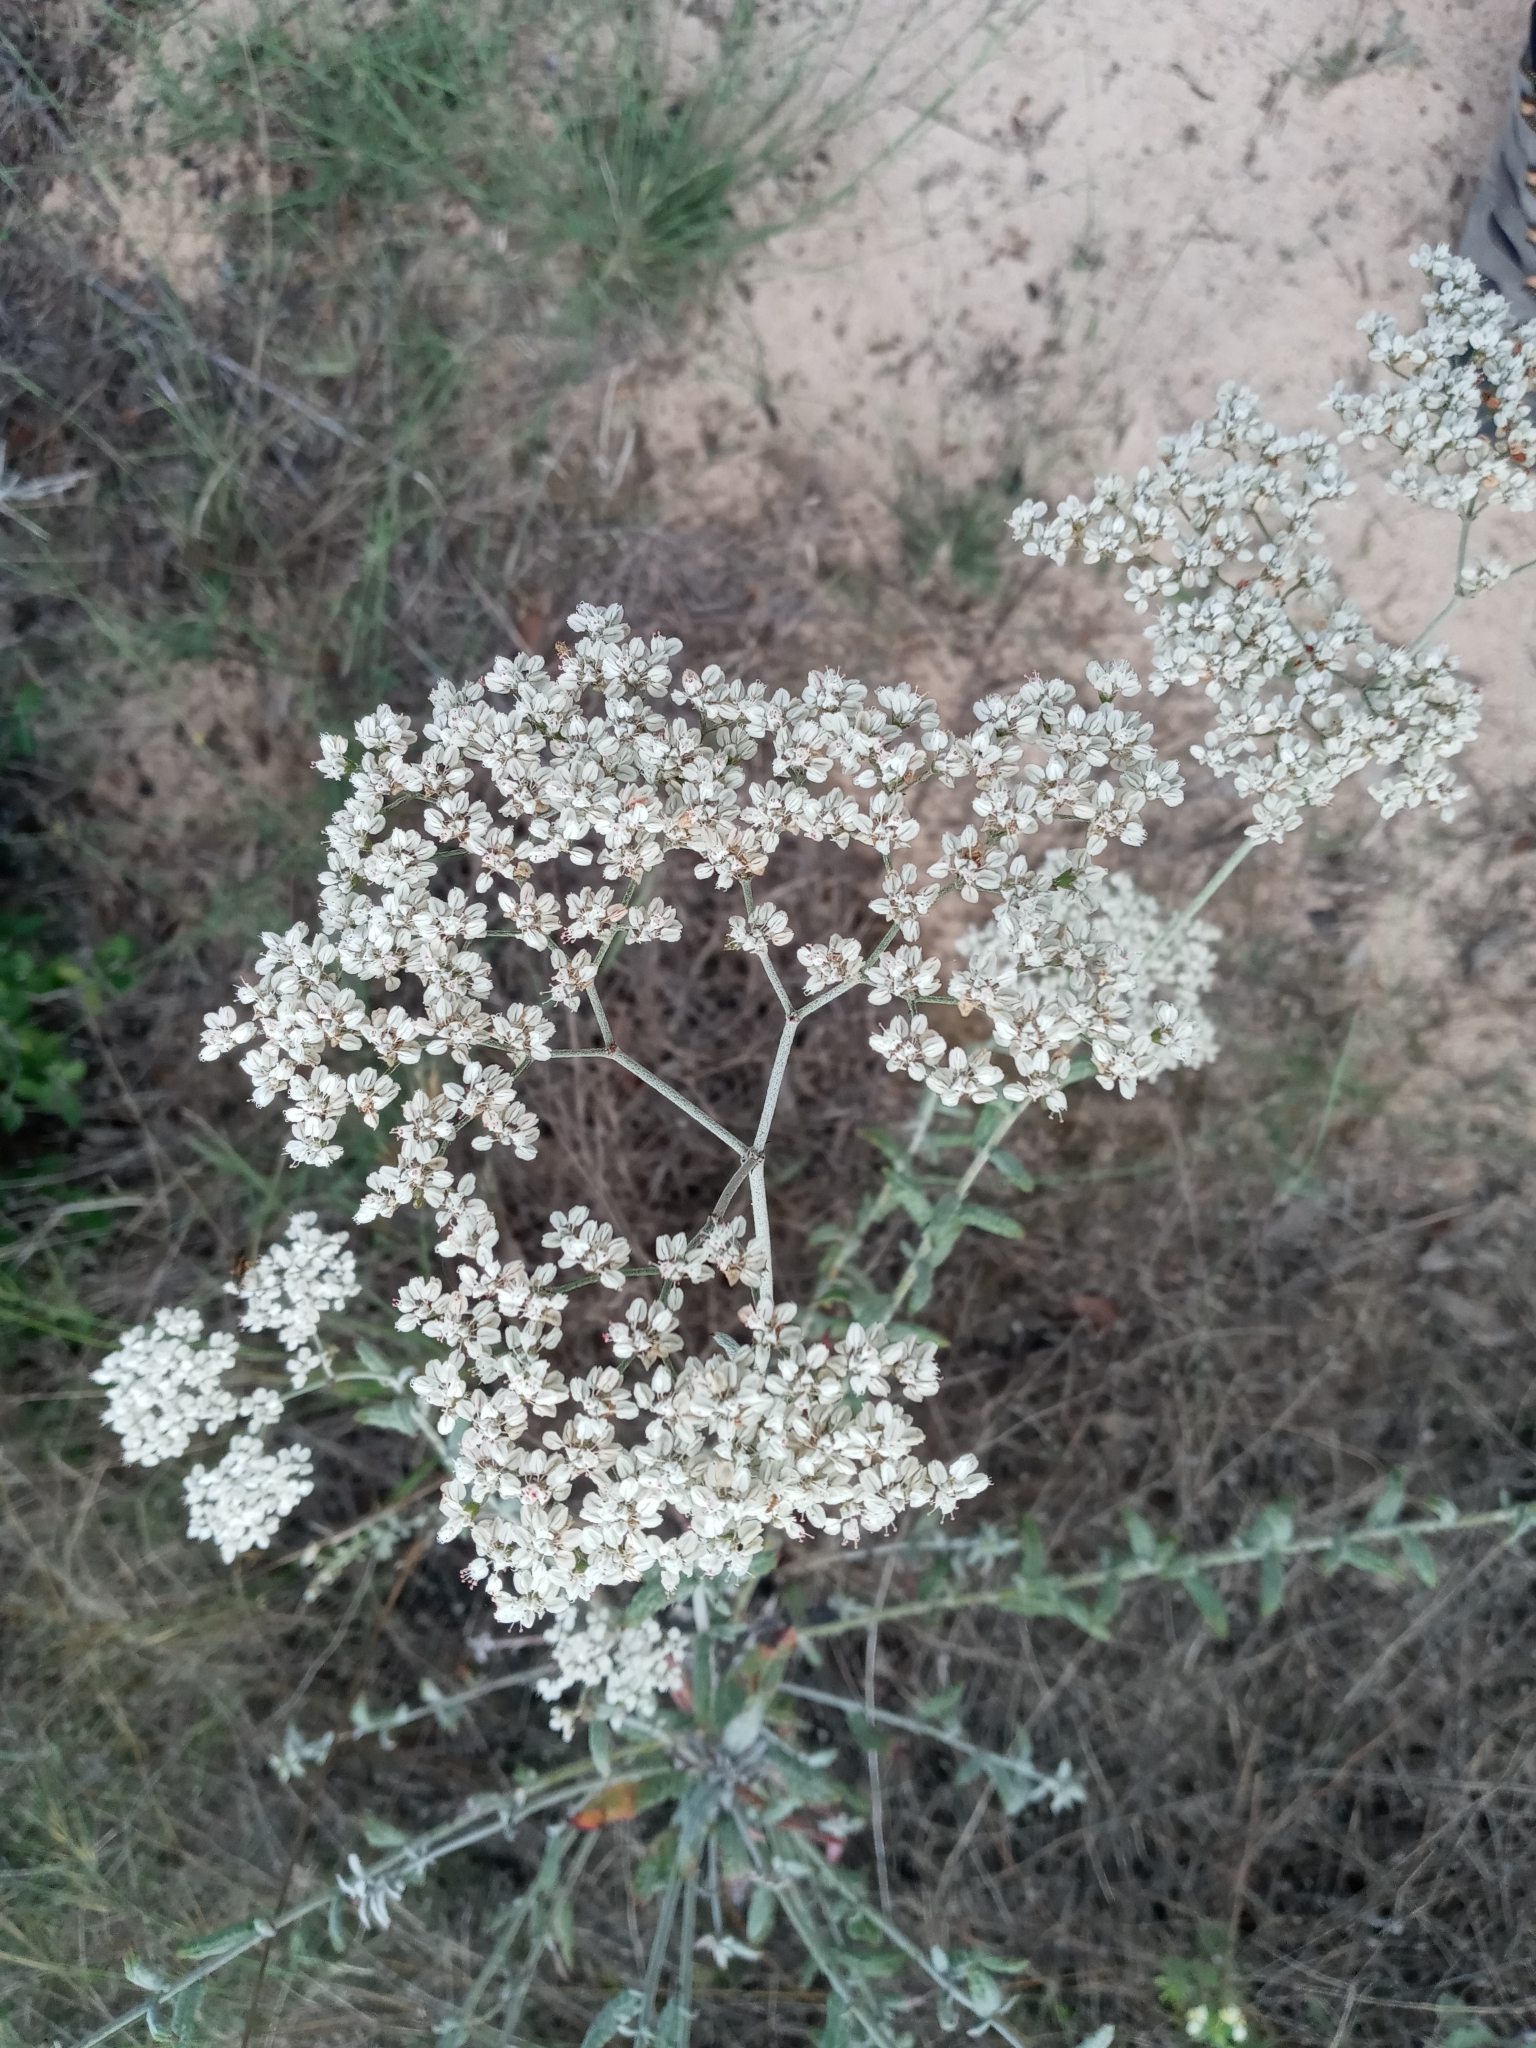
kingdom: Plantae
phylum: Tracheophyta
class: Magnoliopsida
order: Caryophyllales
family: Polygonaceae
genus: Eriogonum
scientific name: Eriogonum multiflorum
